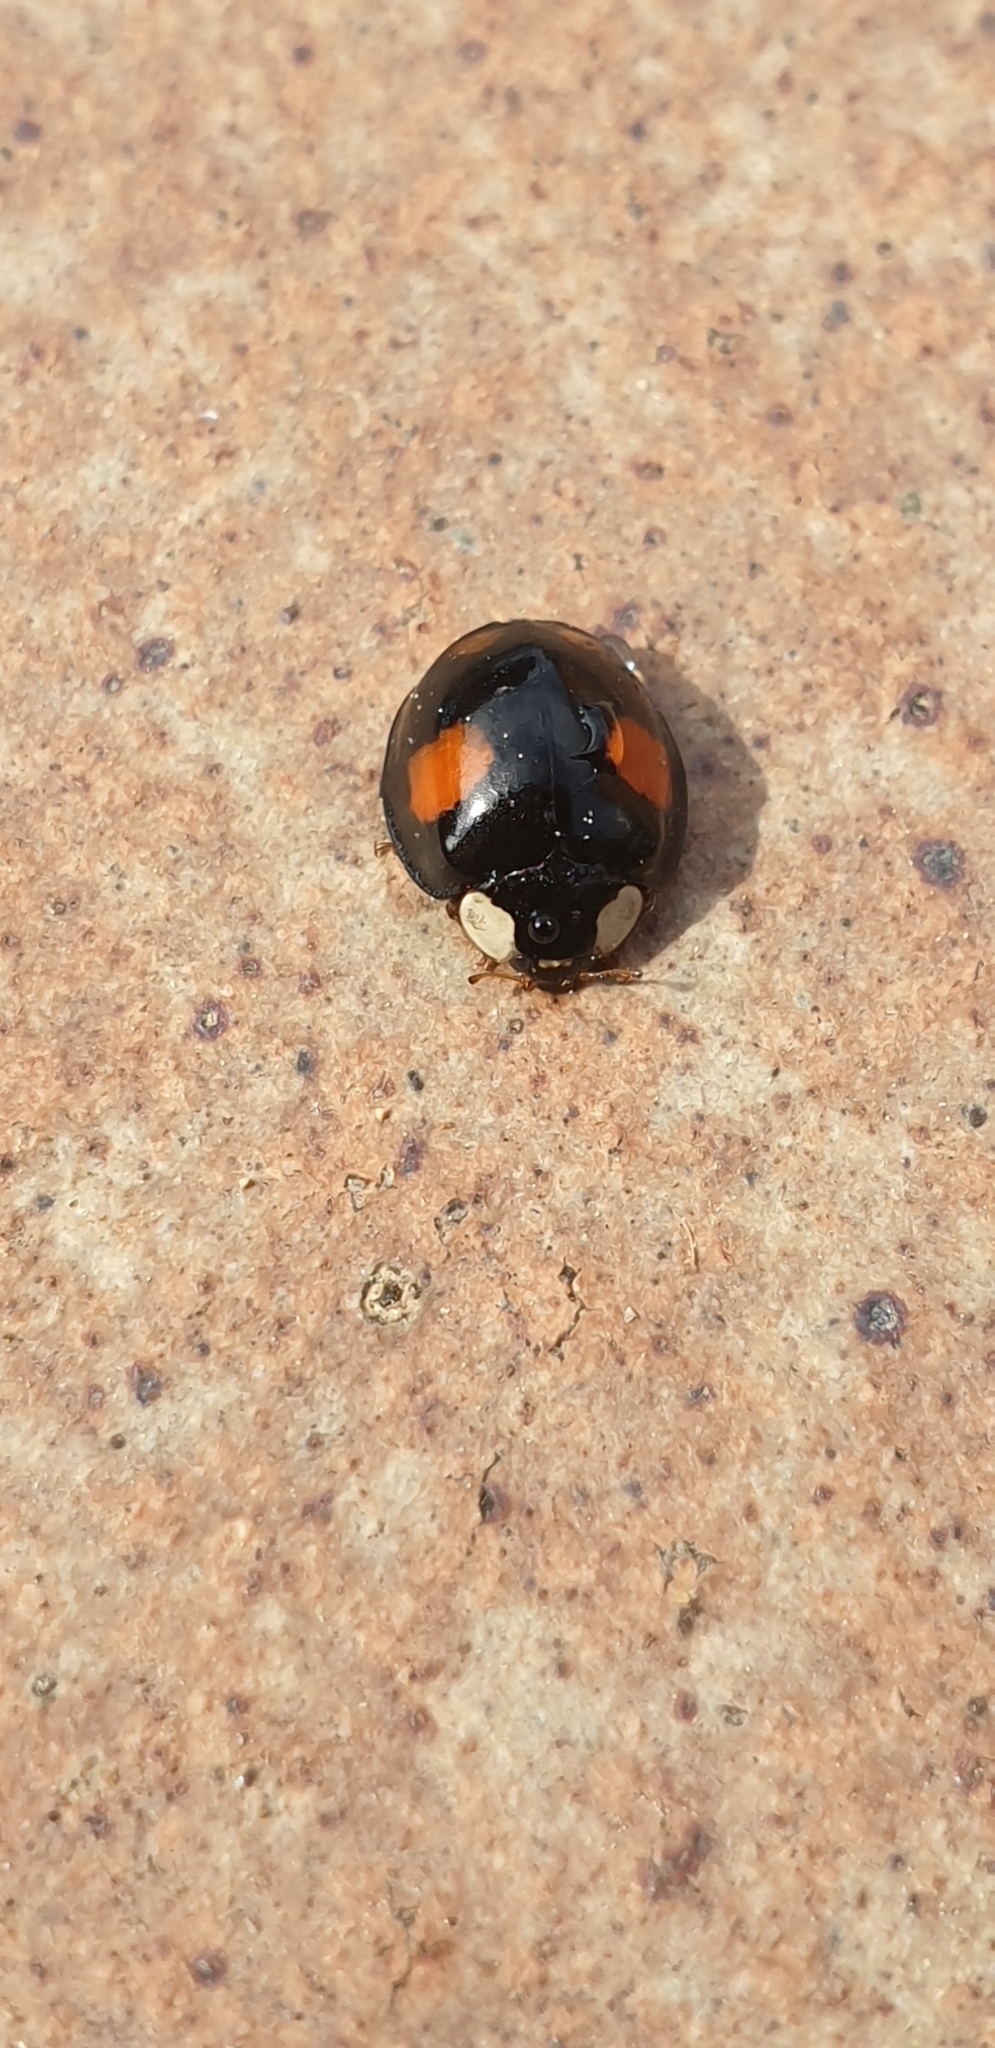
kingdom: Animalia
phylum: Arthropoda
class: Insecta
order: Coleoptera
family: Coccinellidae
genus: Harmonia
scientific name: Harmonia axyridis
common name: Harlequin ladybird
